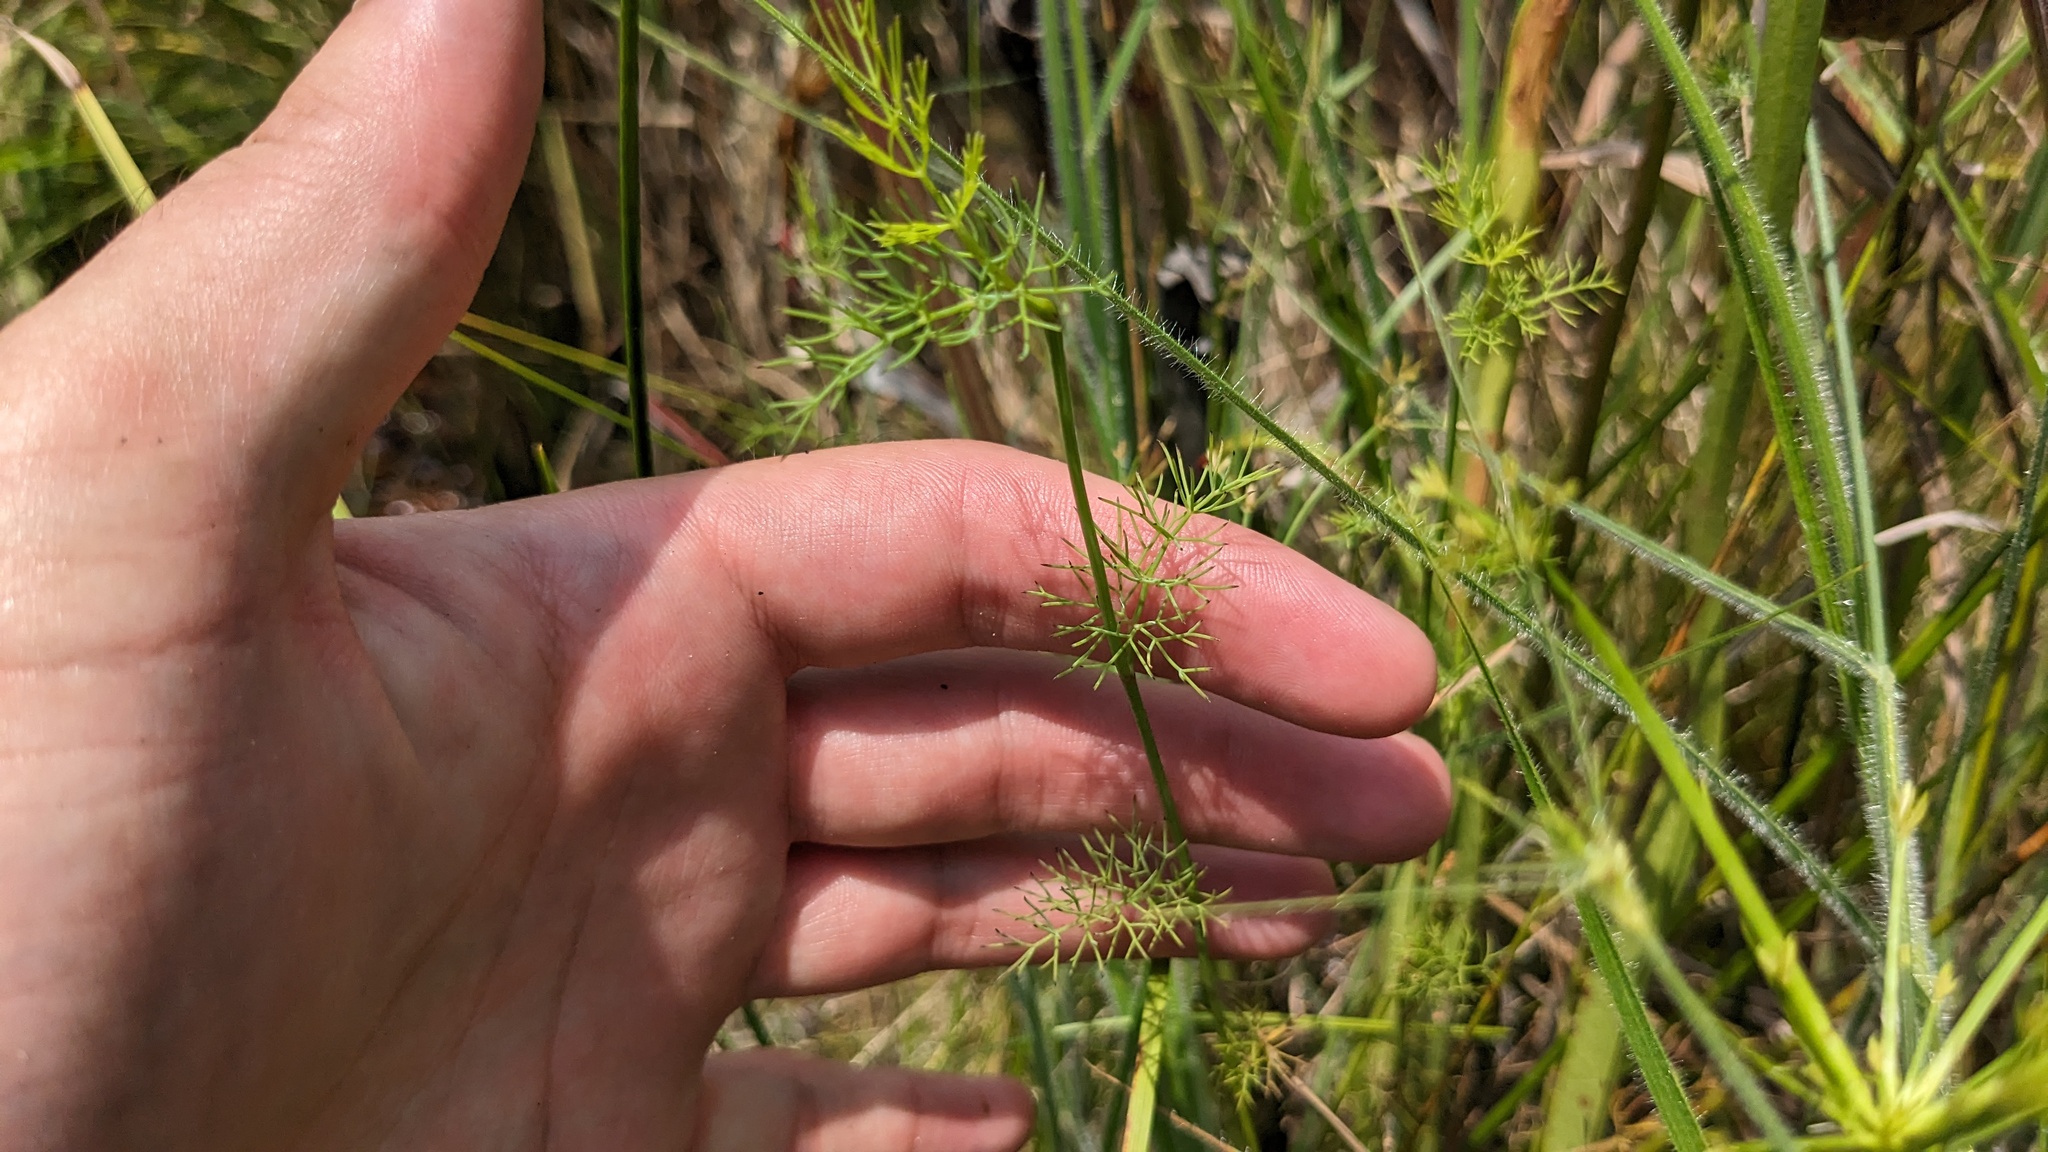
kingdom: Plantae
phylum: Tracheophyta
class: Magnoliopsida
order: Apiales
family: Apiaceae
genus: Ptilimnium
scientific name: Ptilimnium capillaceum
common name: Herbwilliam
